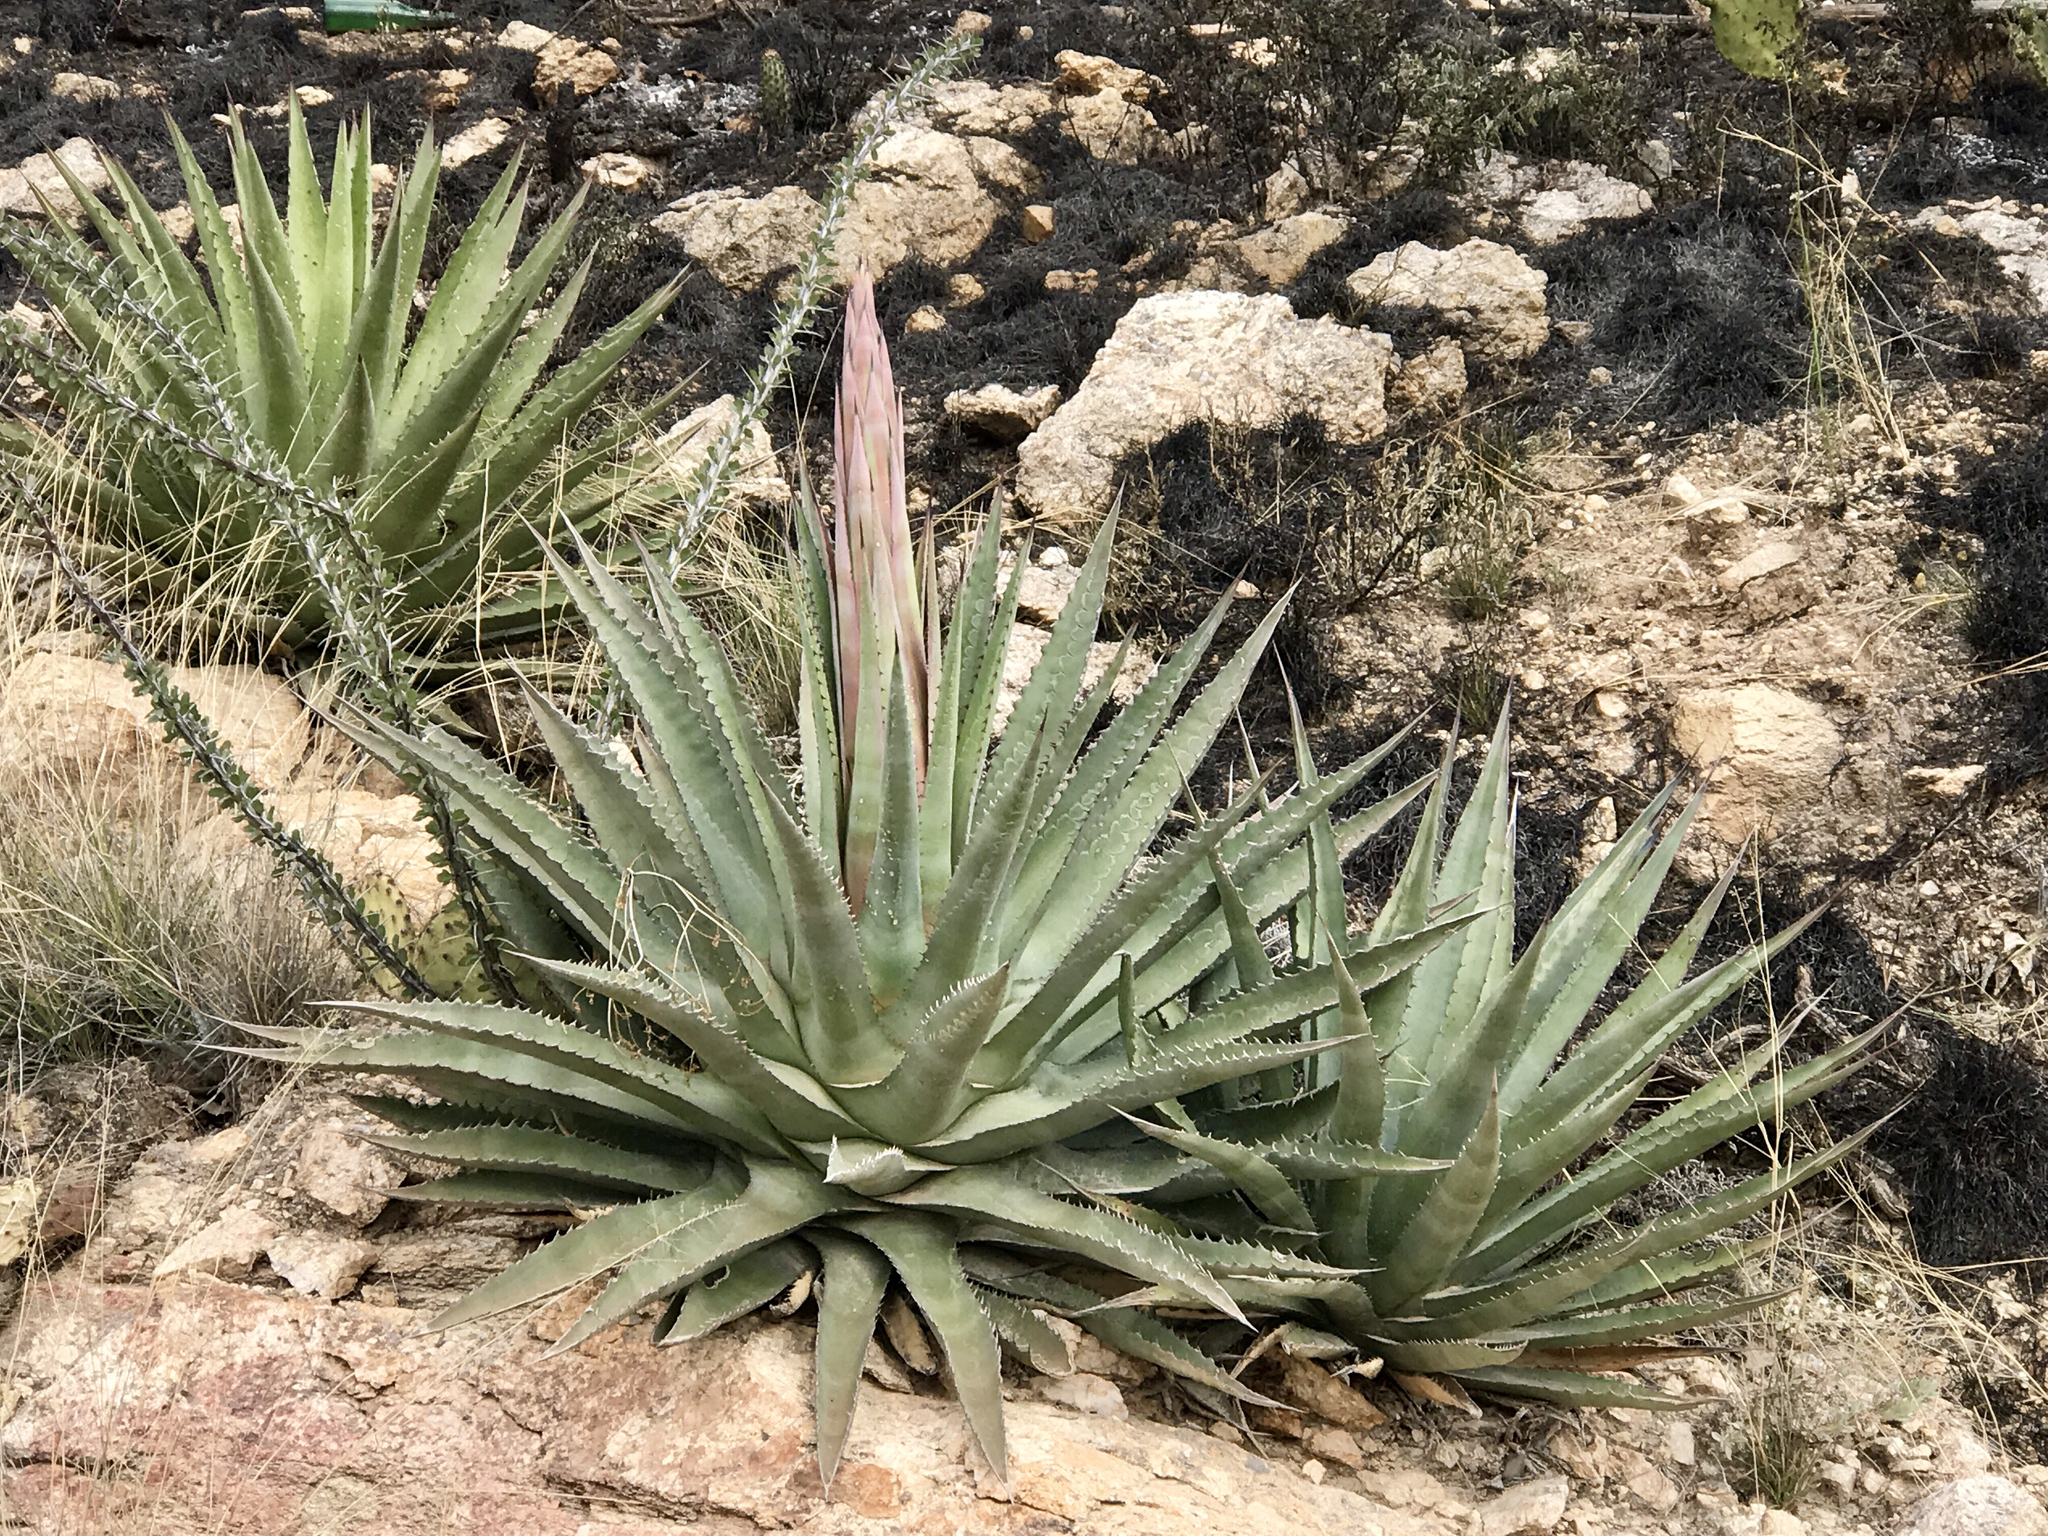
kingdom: Plantae
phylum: Tracheophyta
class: Liliopsida
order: Asparagales
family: Asparagaceae
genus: Agave
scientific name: Agave palmeri
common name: Palmer agave
